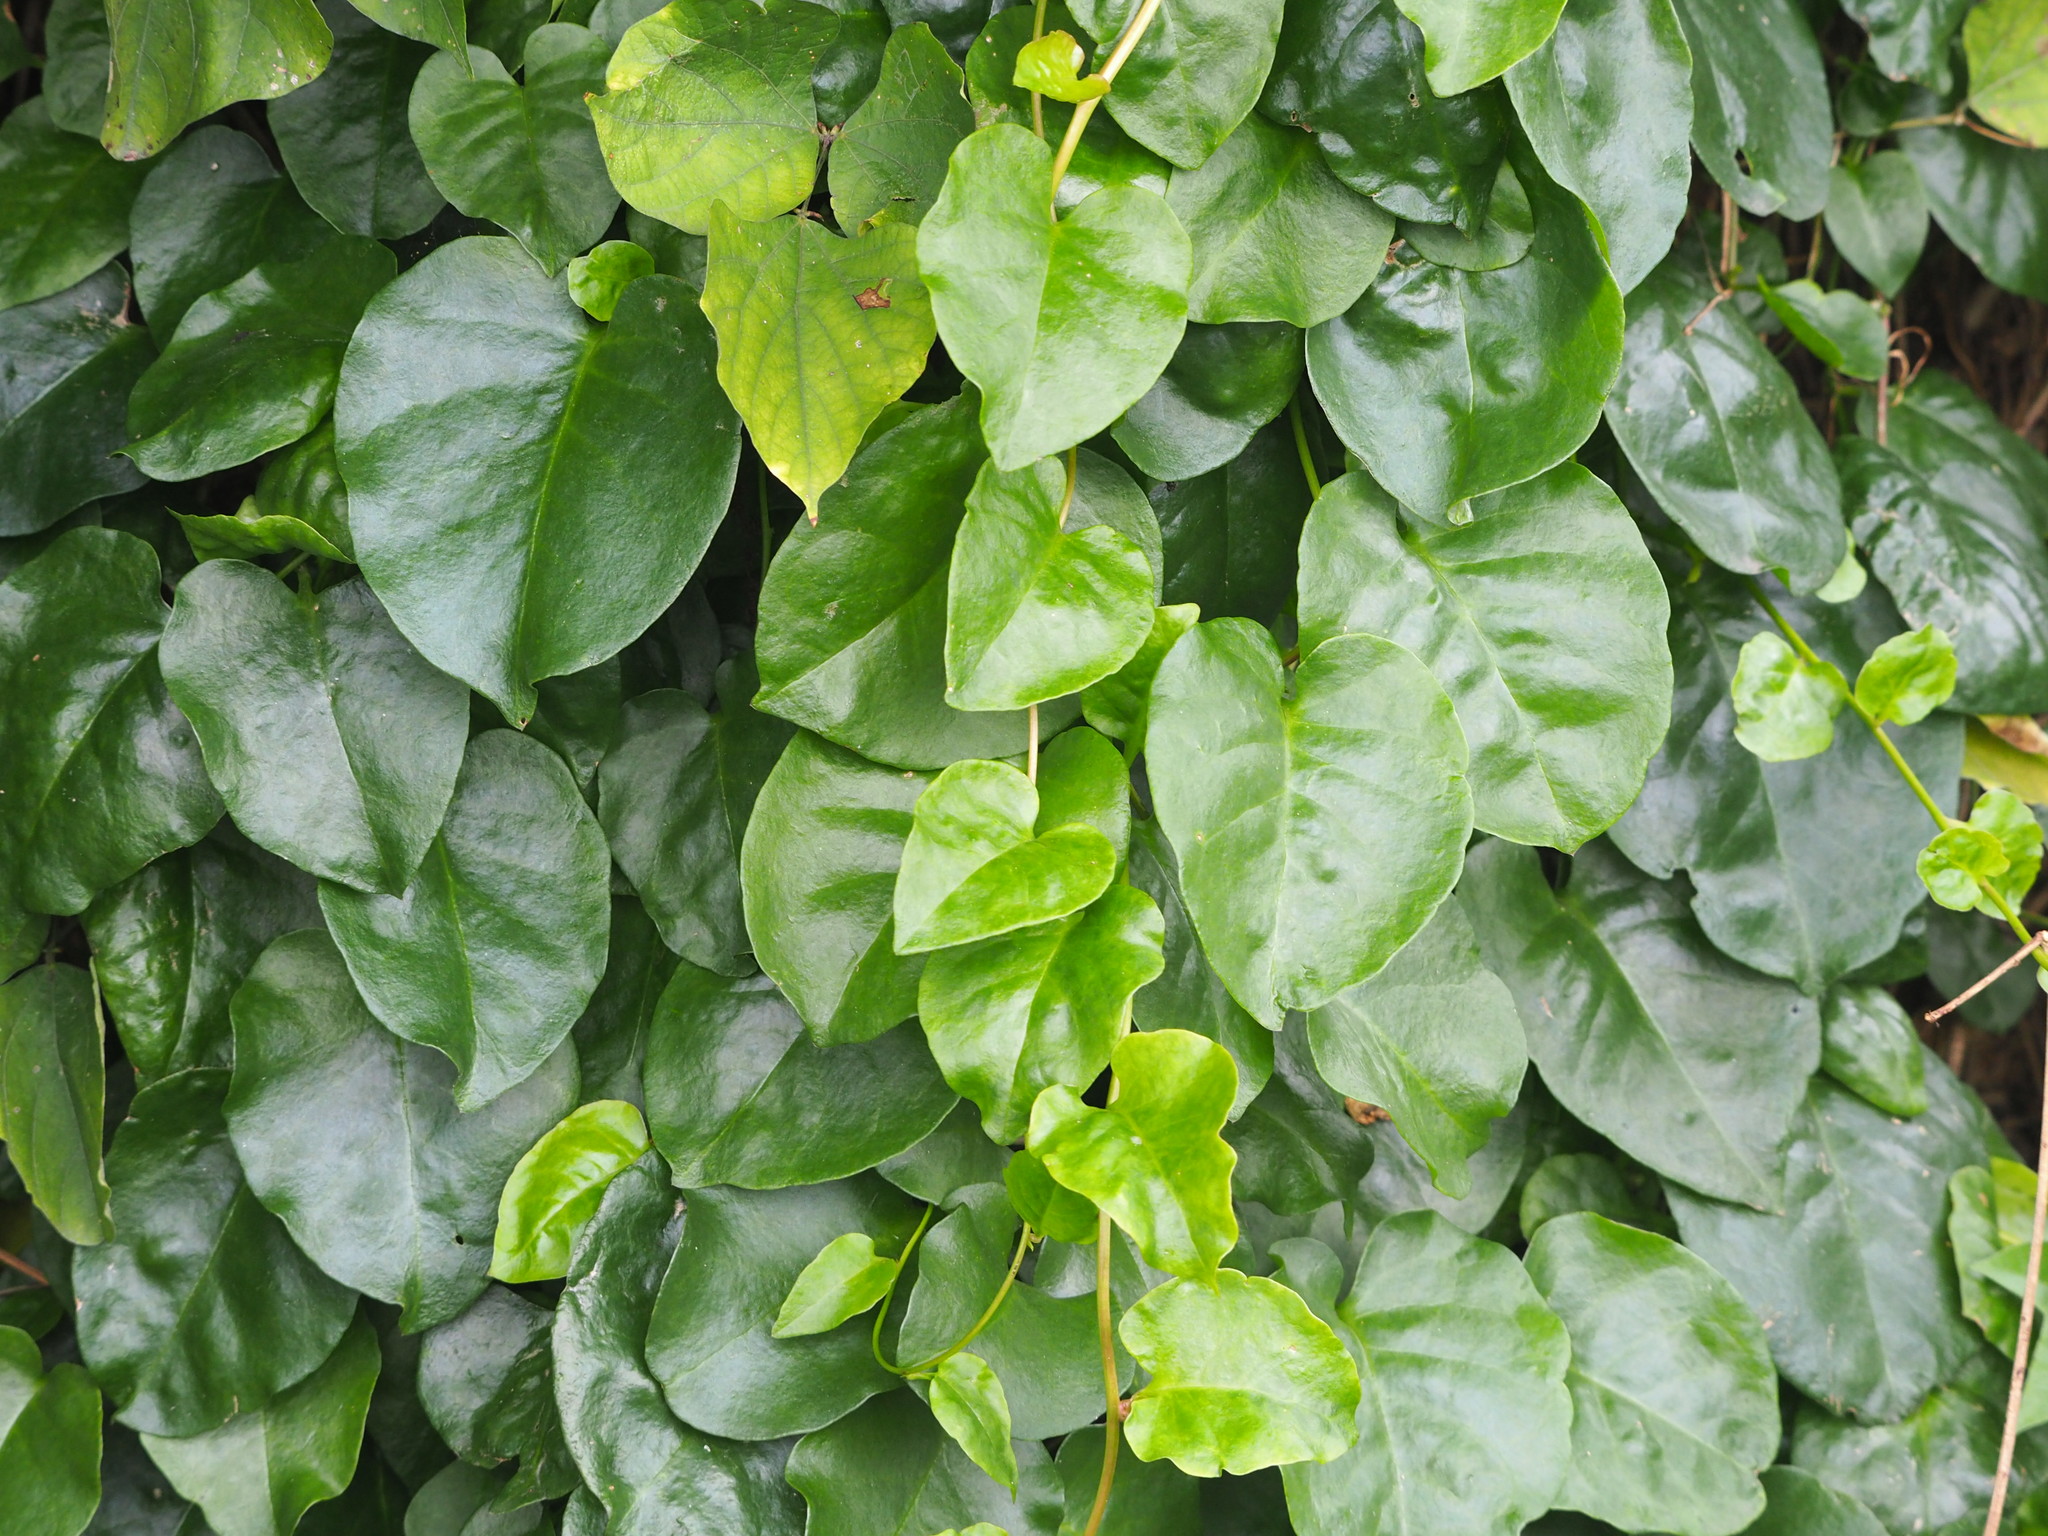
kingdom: Plantae
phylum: Tracheophyta
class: Magnoliopsida
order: Caryophyllales
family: Basellaceae
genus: Anredera
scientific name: Anredera cordifolia
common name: Heartleaf madeiravine
